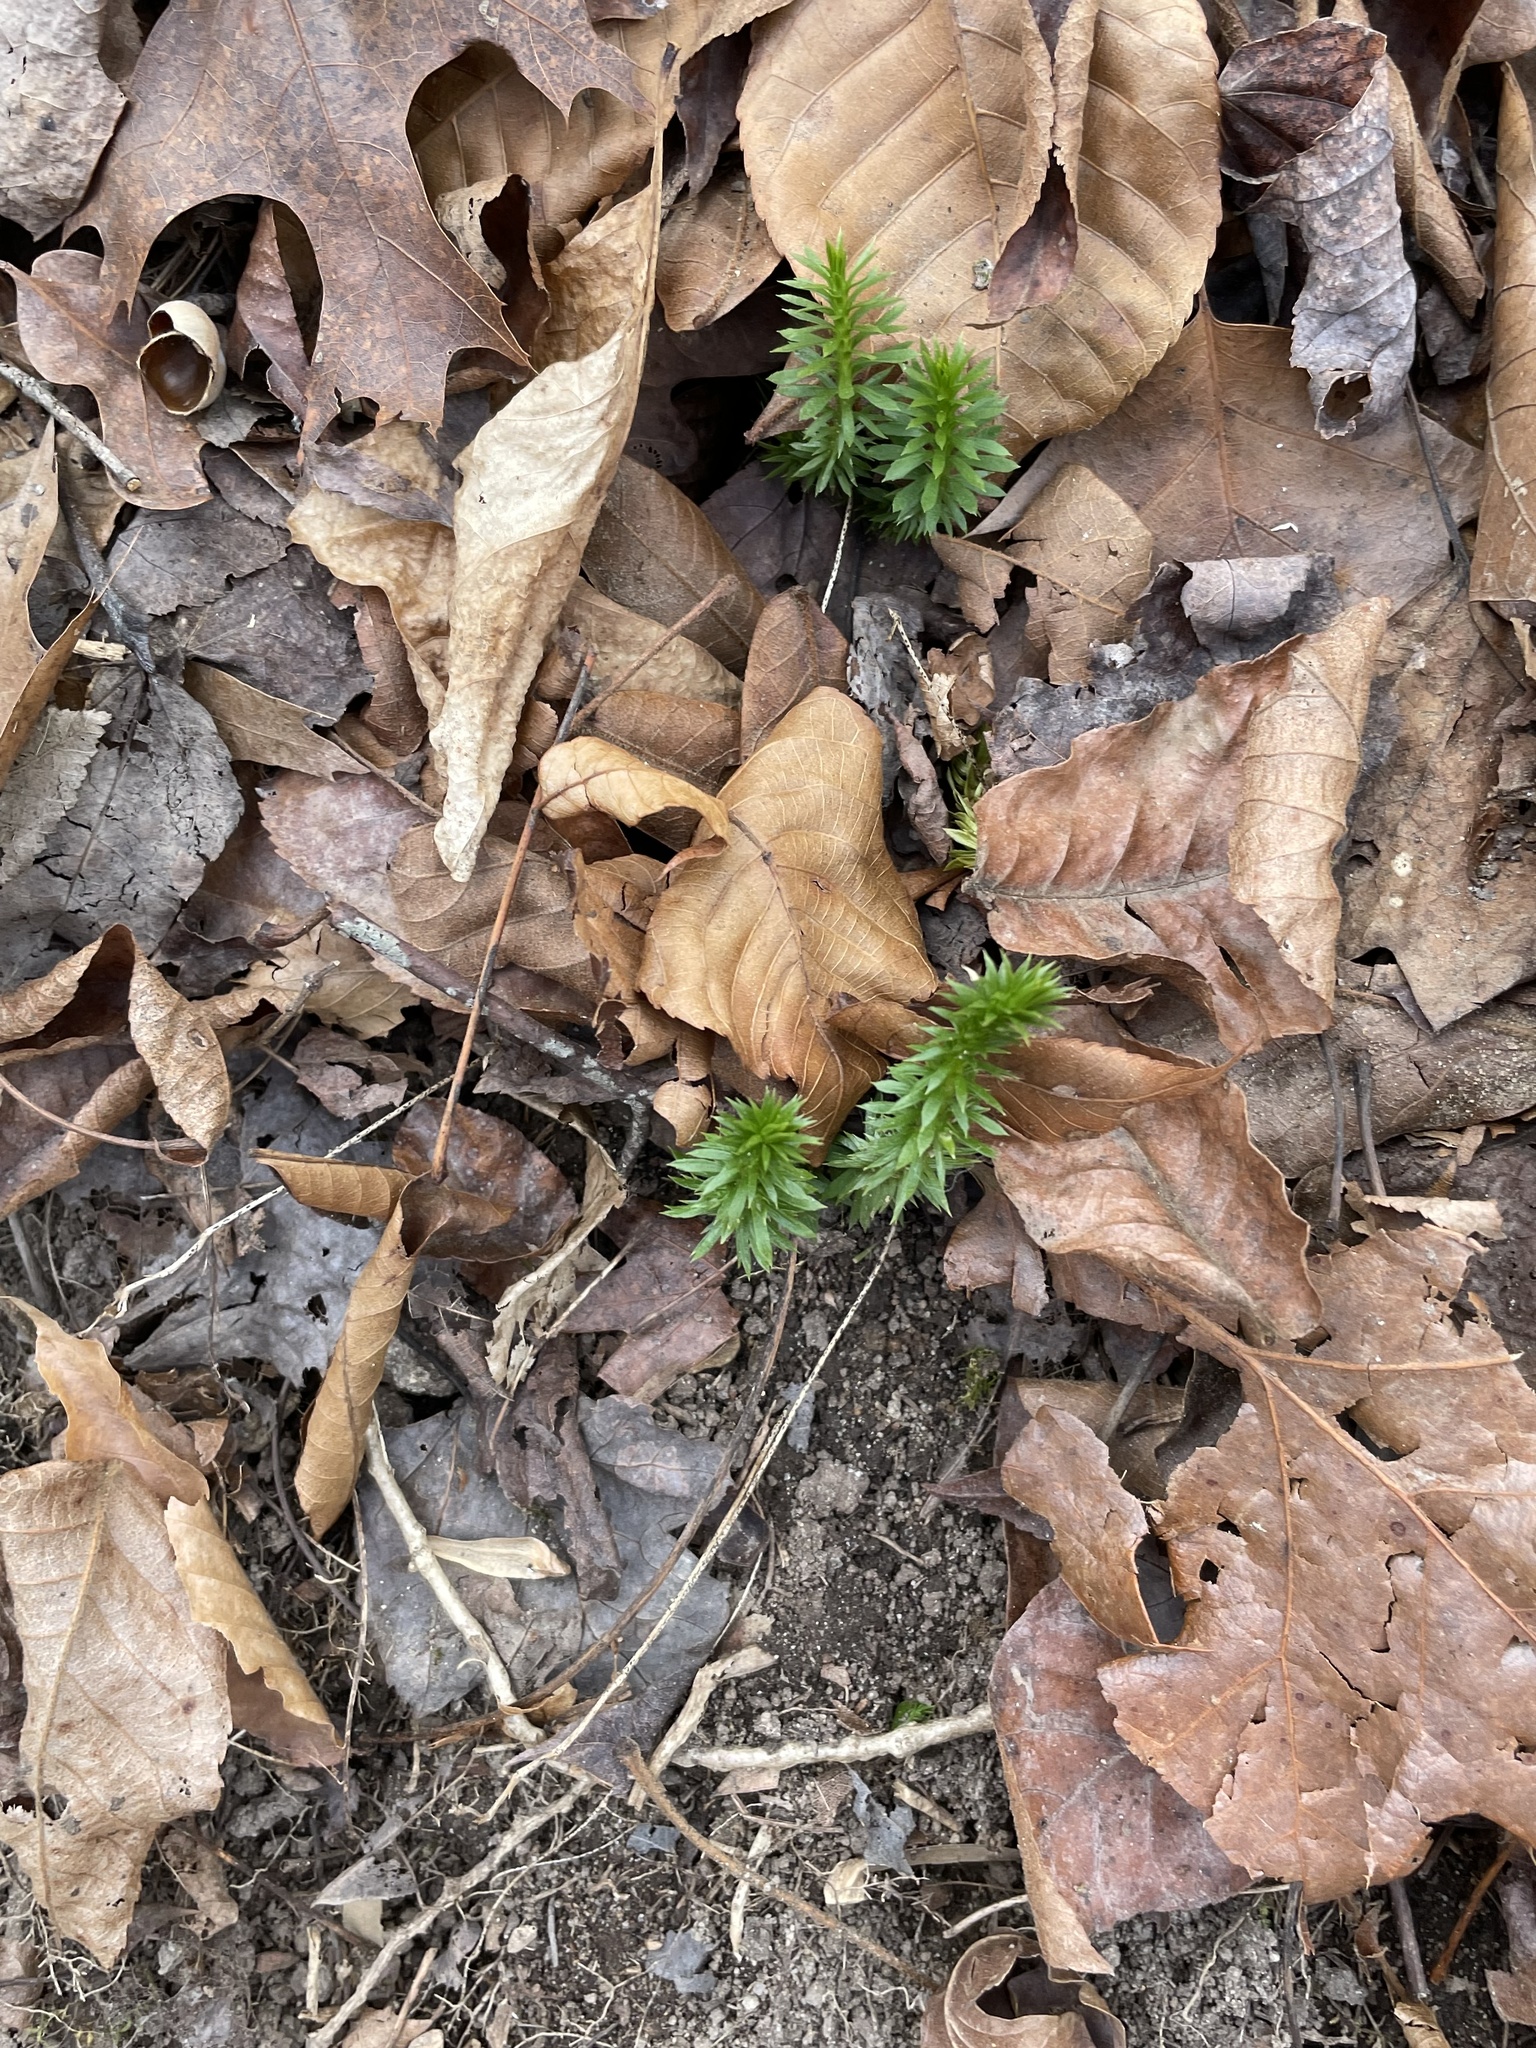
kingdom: Plantae
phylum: Tracheophyta
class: Lycopodiopsida
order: Lycopodiales
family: Lycopodiaceae
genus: Huperzia
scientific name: Huperzia lucidula
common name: Shining clubmoss
